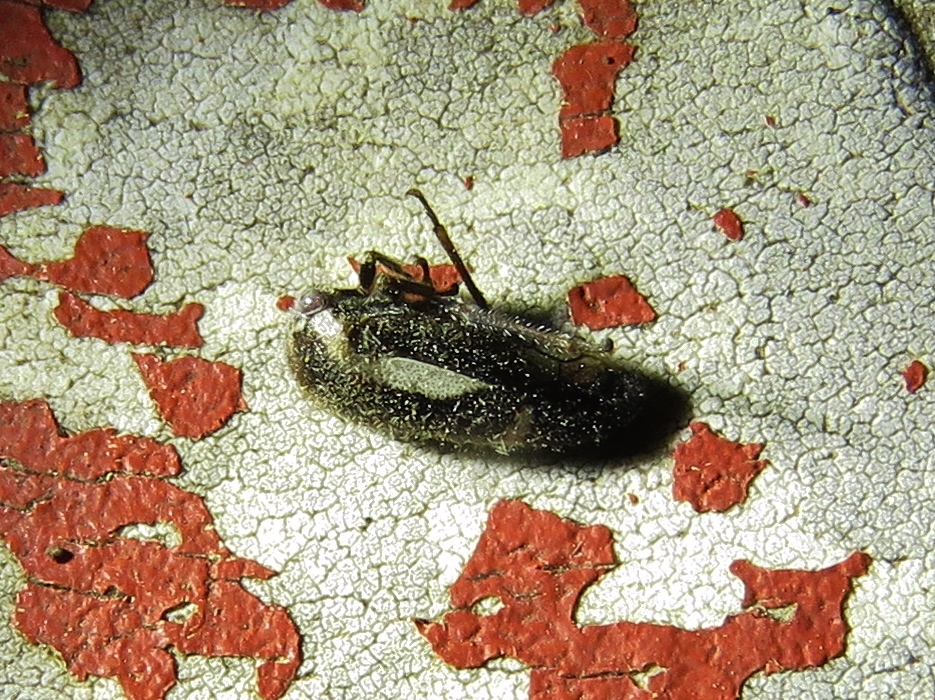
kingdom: Animalia
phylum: Arthropoda
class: Insecta
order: Hemiptera
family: Membracidae
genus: Ophiderma
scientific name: Ophiderma flavicephala
